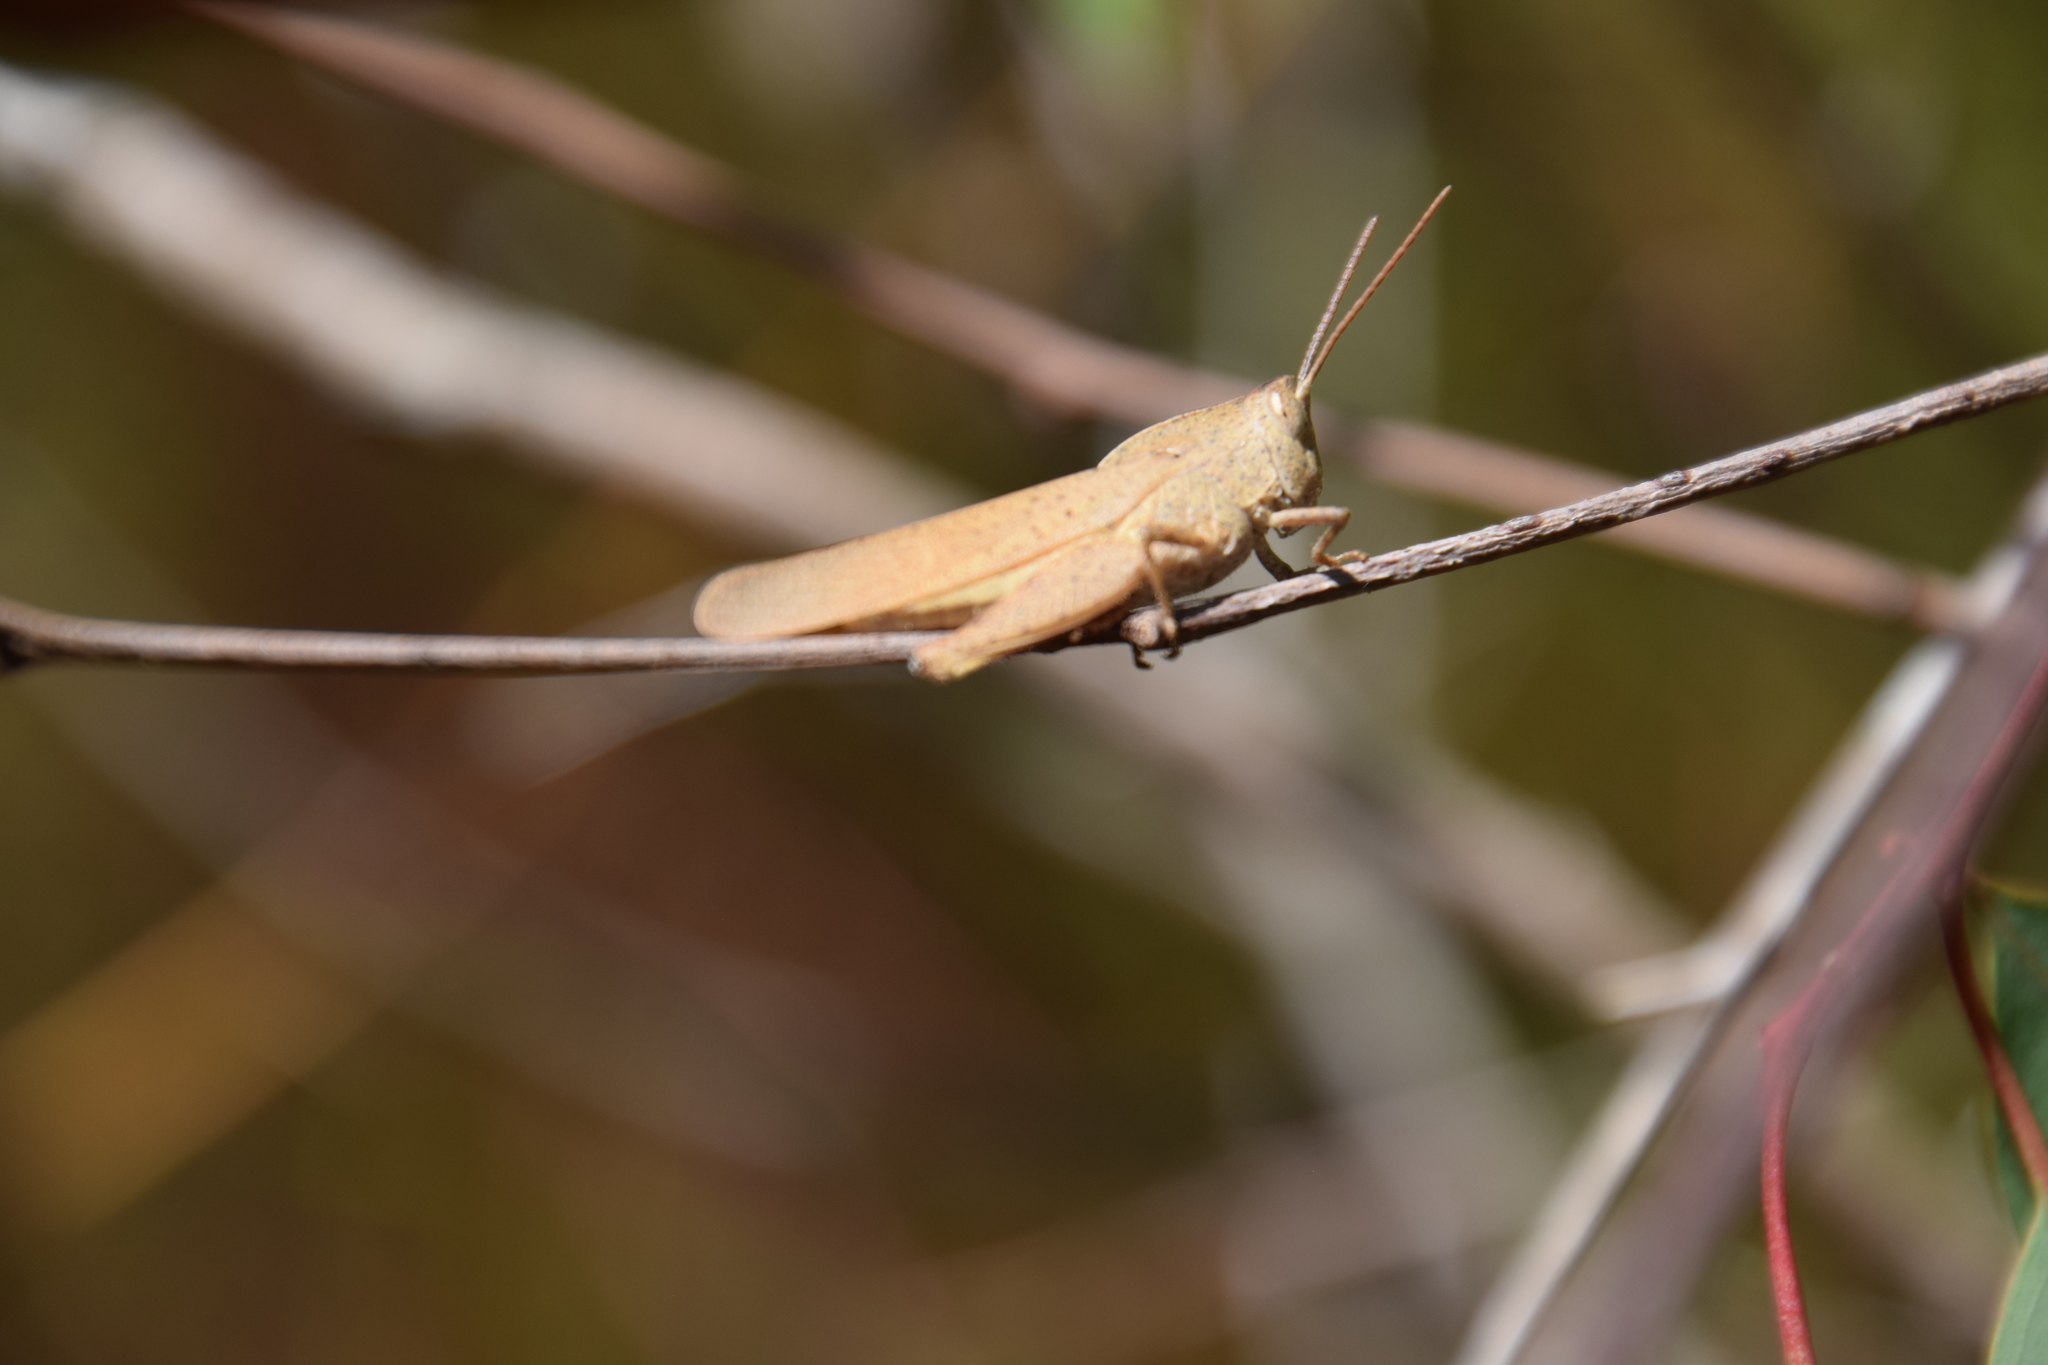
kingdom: Animalia
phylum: Arthropoda
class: Insecta
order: Orthoptera
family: Acrididae
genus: Goniaea
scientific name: Goniaea vocans
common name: Slender gumleaf grasshopper
